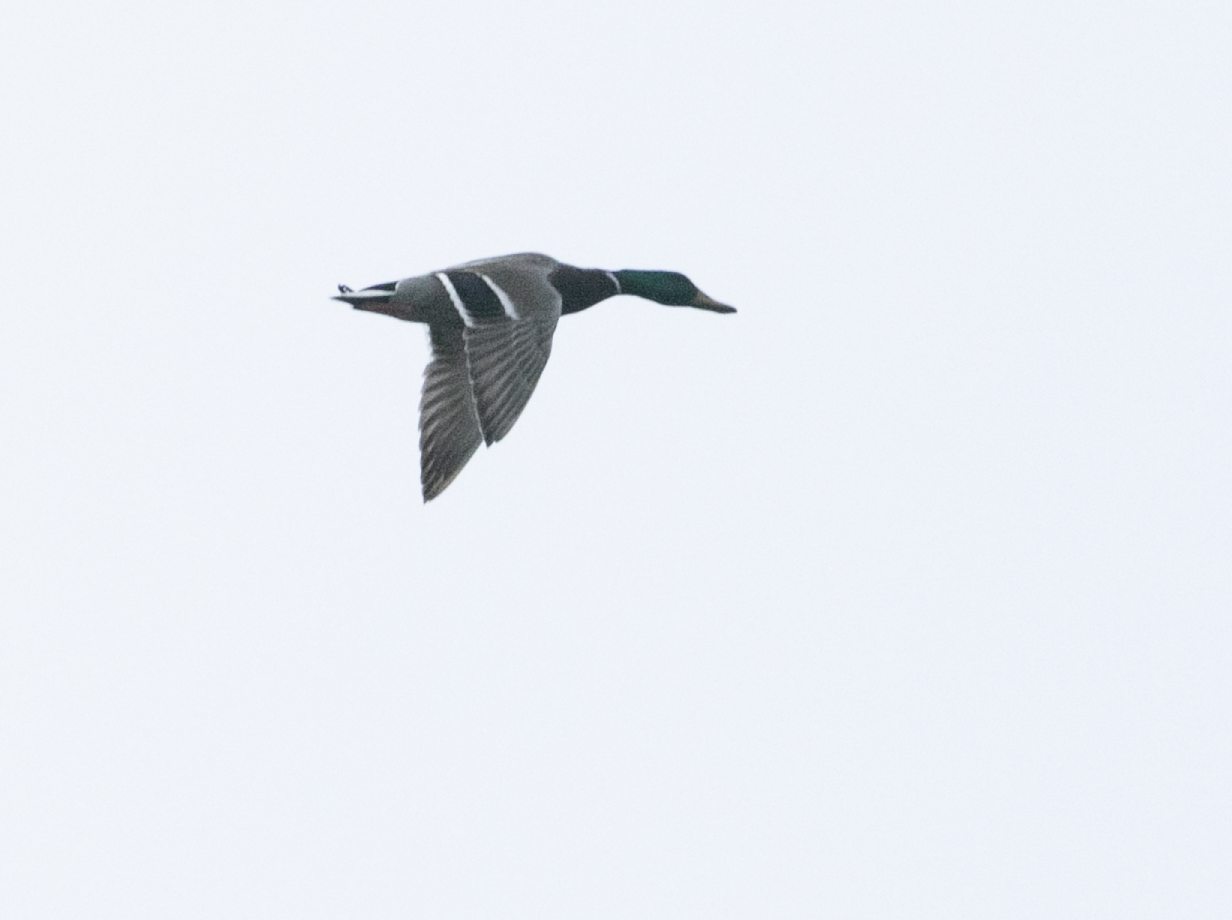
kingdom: Animalia
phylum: Chordata
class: Aves
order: Anseriformes
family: Anatidae
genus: Anas
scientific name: Anas platyrhynchos
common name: Mallard
